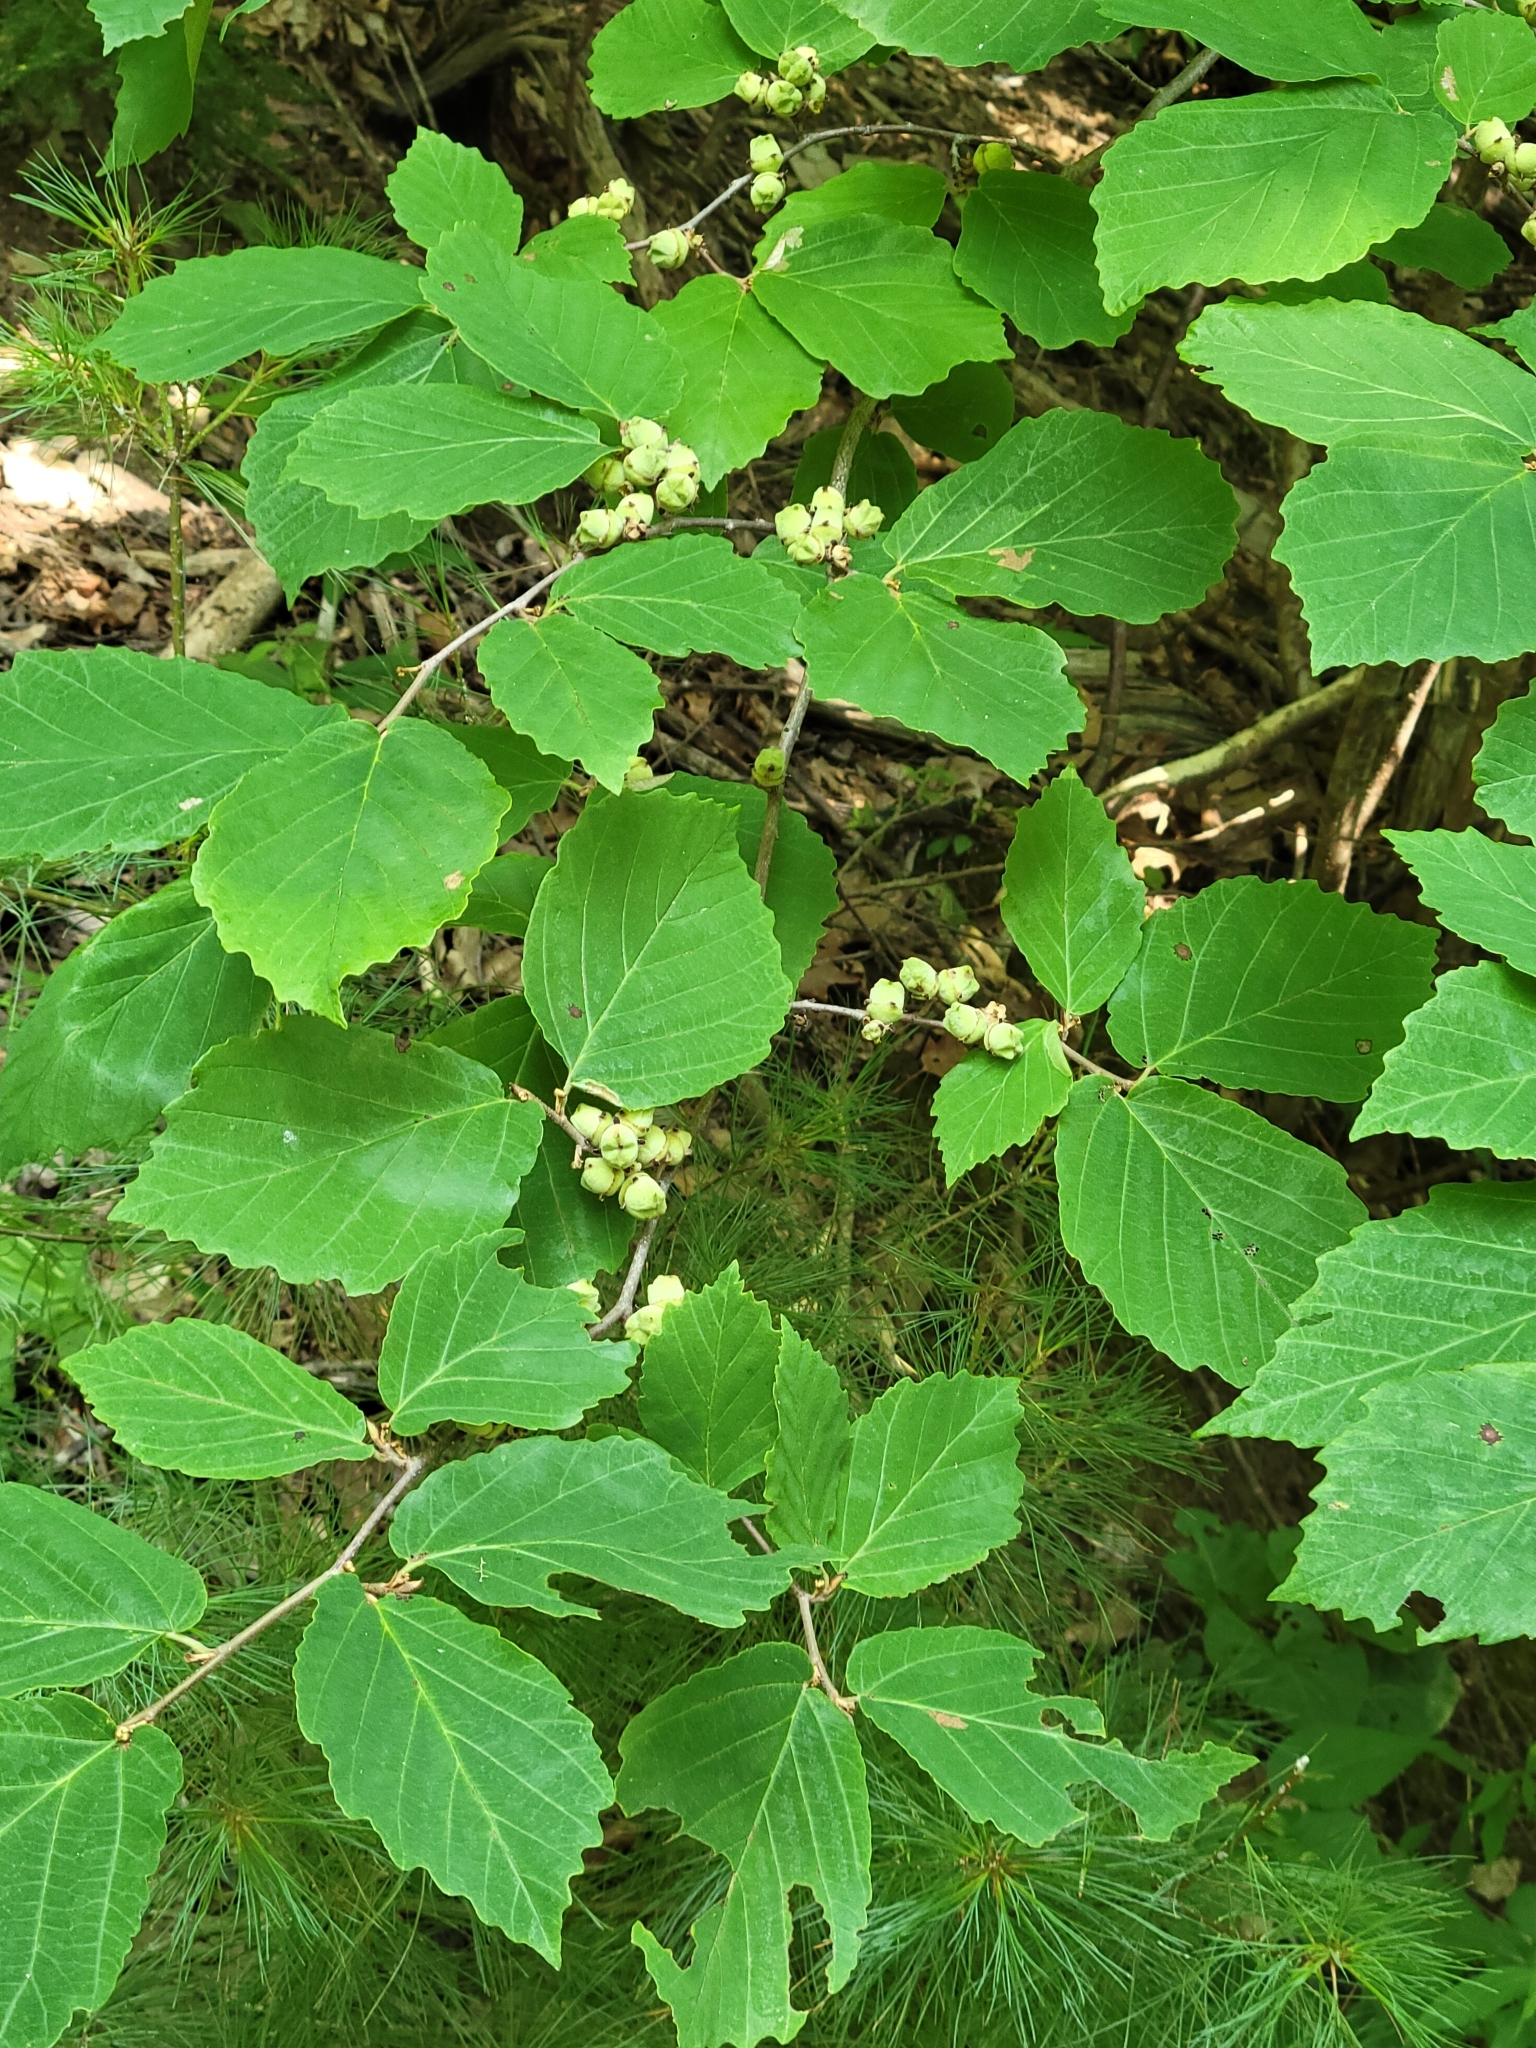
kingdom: Plantae
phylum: Tracheophyta
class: Magnoliopsida
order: Saxifragales
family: Hamamelidaceae
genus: Hamamelis
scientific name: Hamamelis virginiana
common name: Witch-hazel
